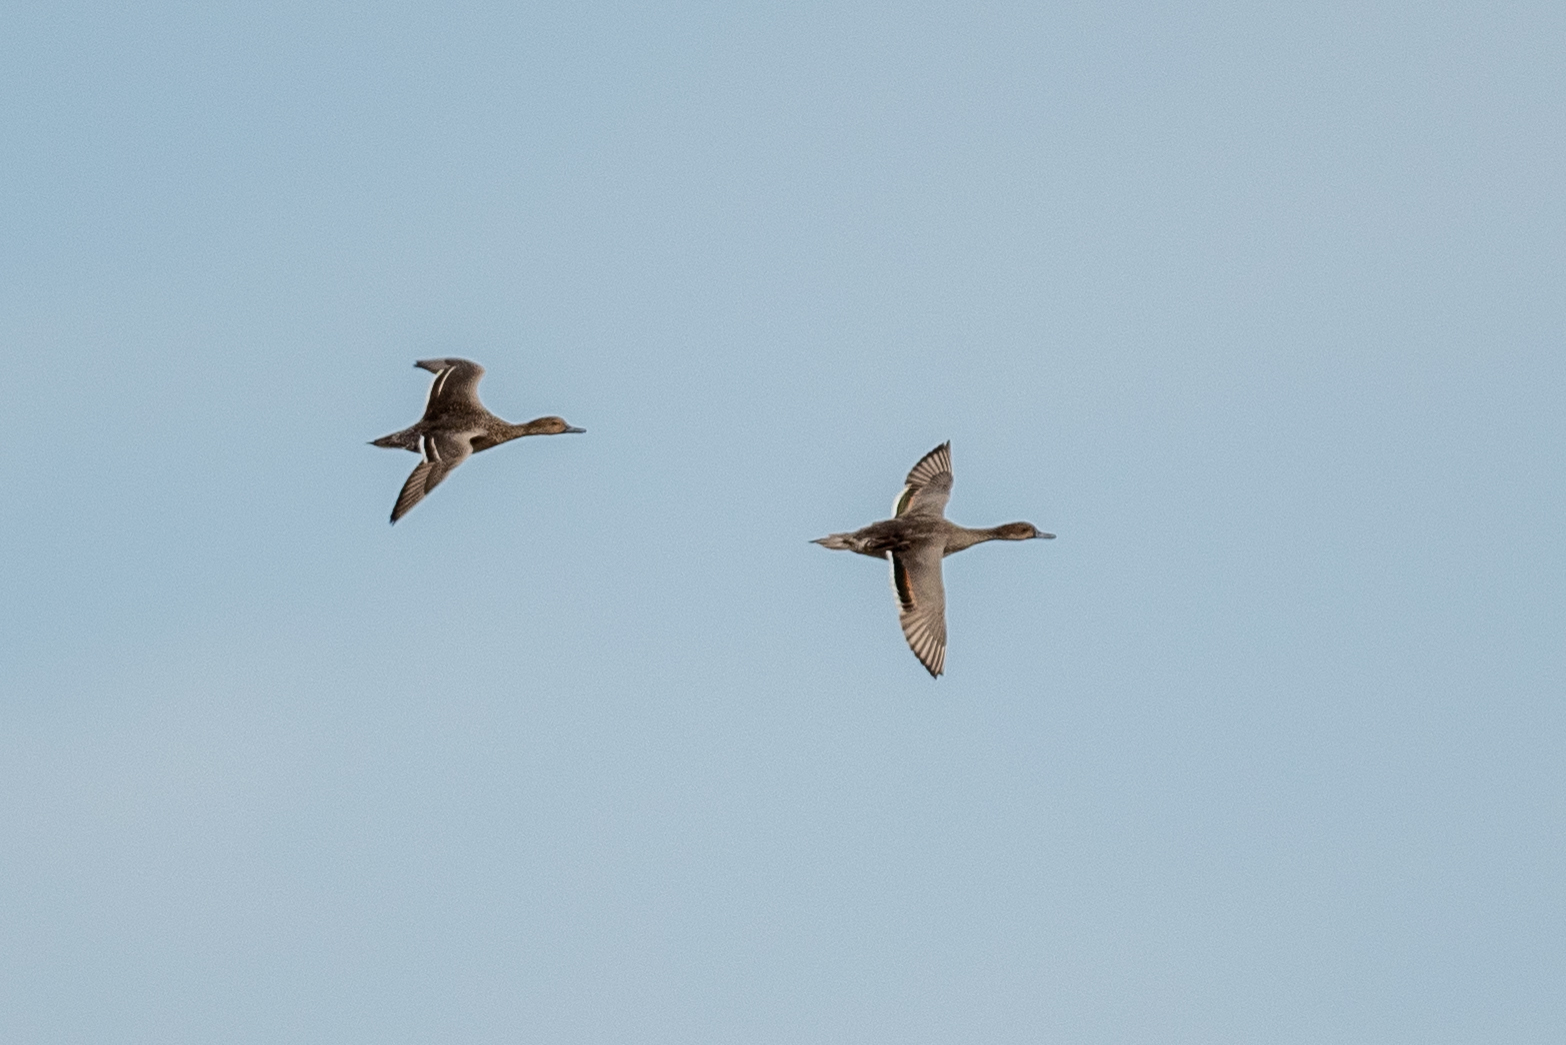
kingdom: Animalia
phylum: Chordata
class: Aves
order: Anseriformes
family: Anatidae
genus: Anas
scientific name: Anas acuta
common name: Northern pintail
